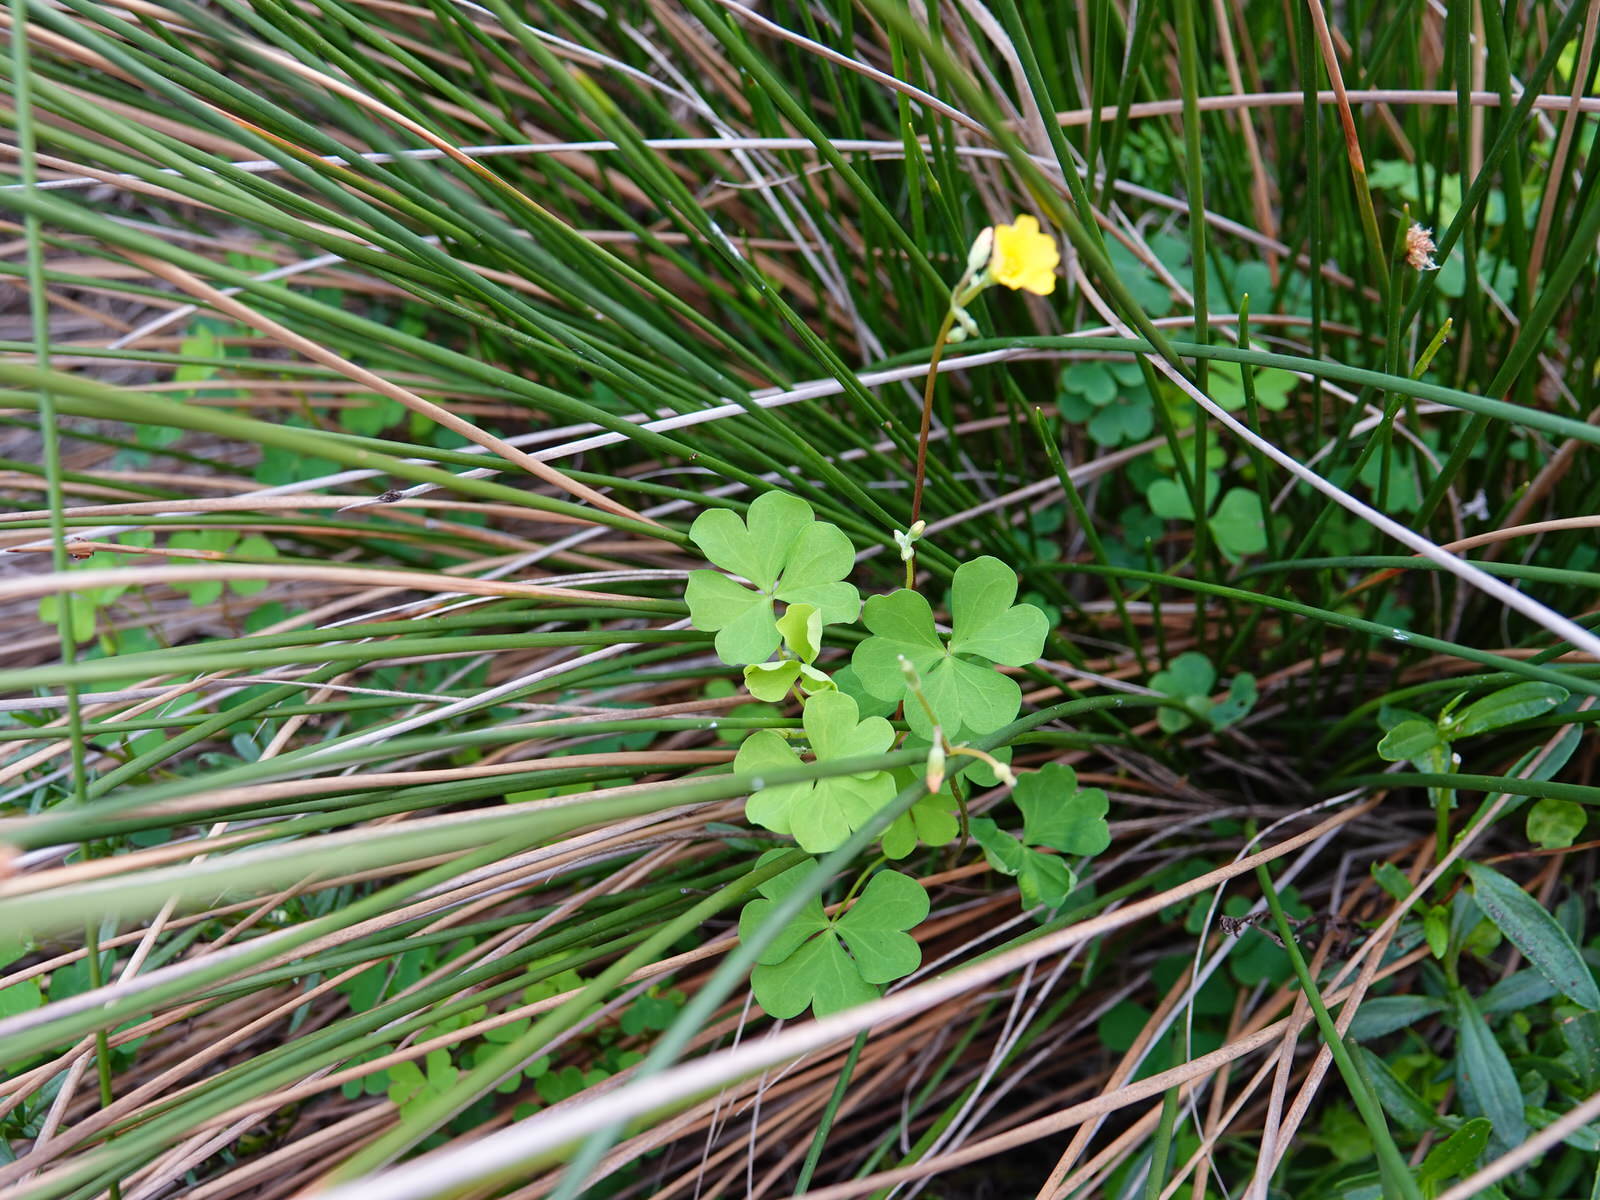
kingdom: Plantae
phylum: Tracheophyta
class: Magnoliopsida
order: Oxalidales
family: Oxalidaceae
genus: Oxalis
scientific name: Oxalis rubens
